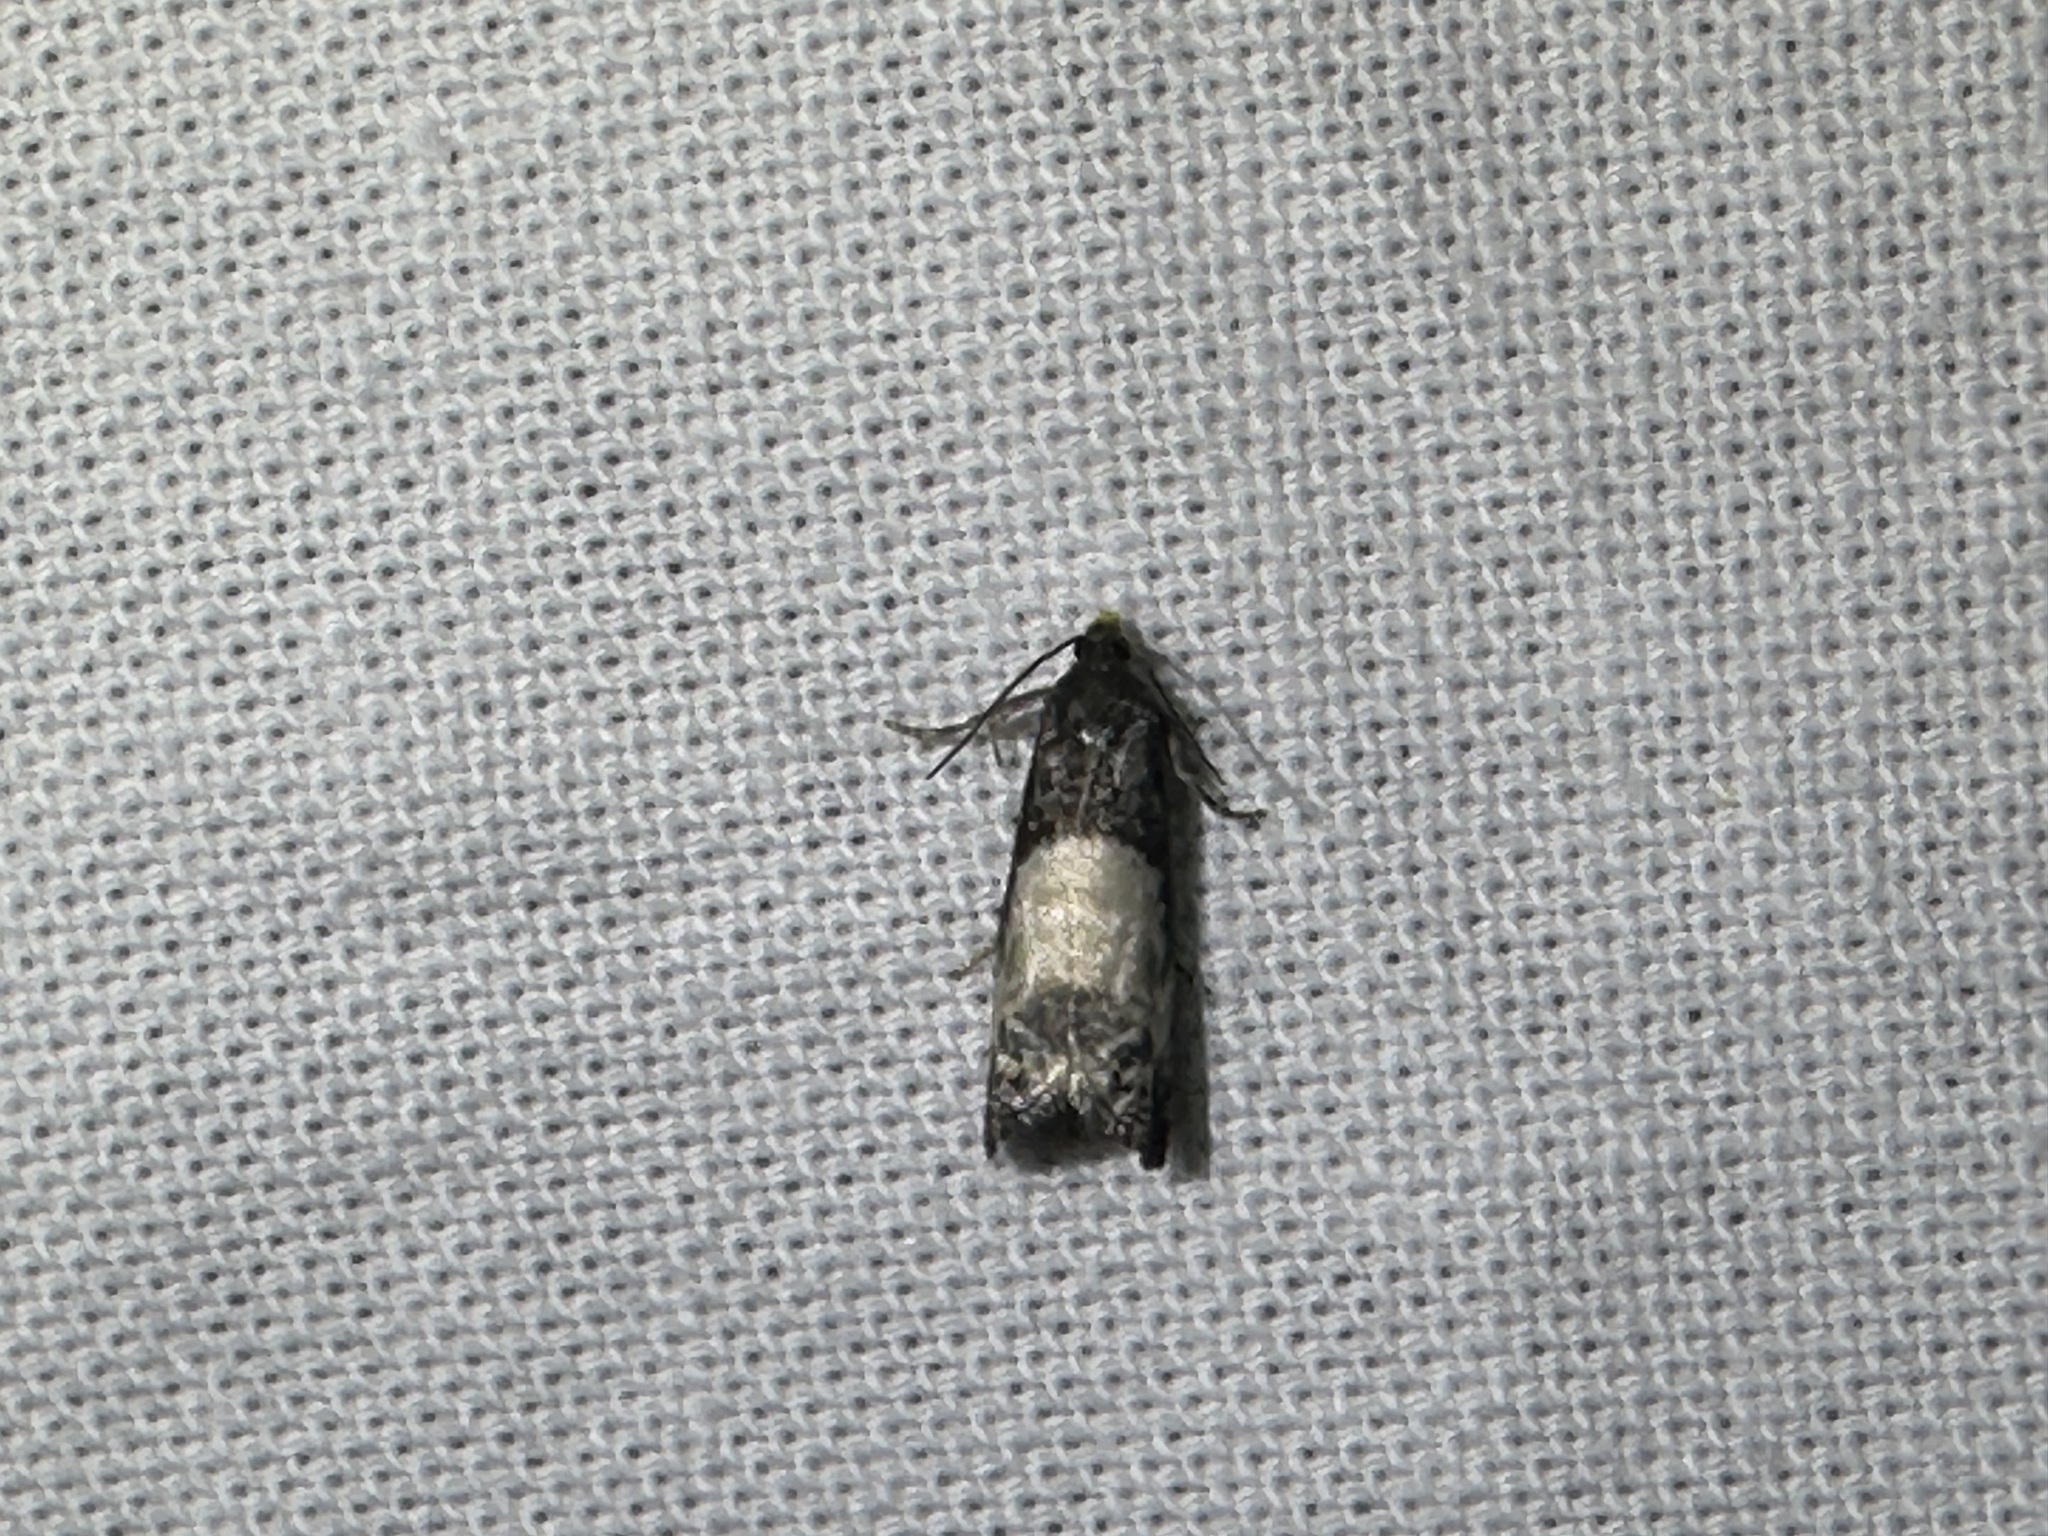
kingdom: Animalia
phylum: Arthropoda
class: Insecta
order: Lepidoptera
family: Tortricidae
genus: Notocelia
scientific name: Notocelia cynosbatella
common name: Yellow-faced bell moth
